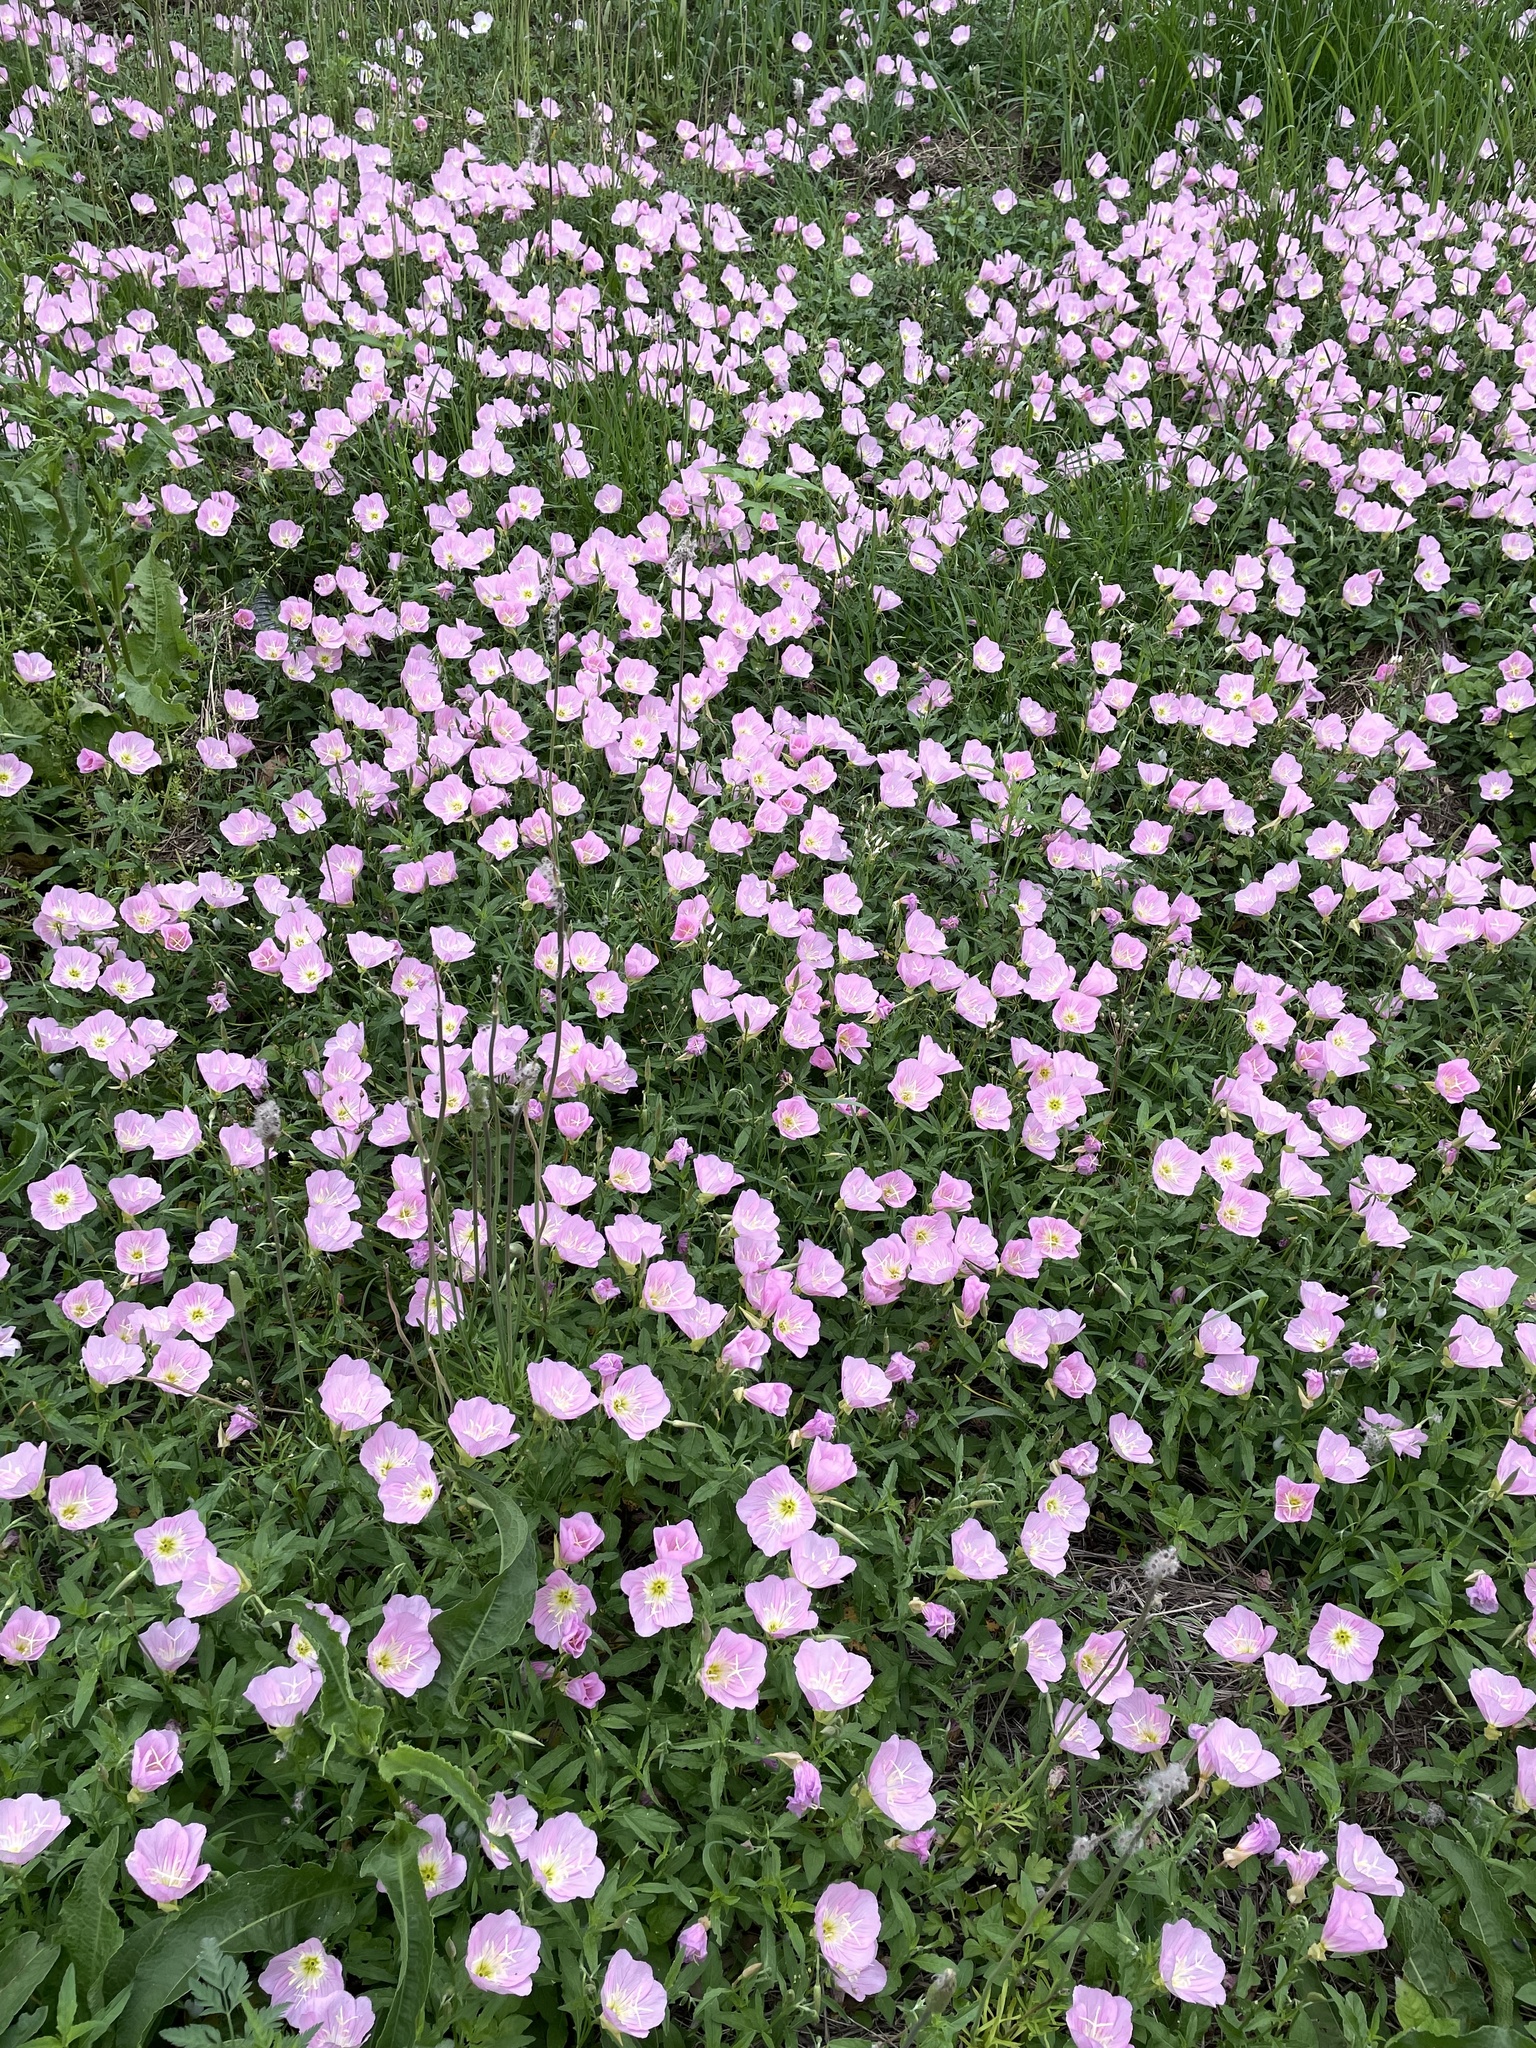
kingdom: Plantae
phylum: Tracheophyta
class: Magnoliopsida
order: Myrtales
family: Onagraceae
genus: Oenothera
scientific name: Oenothera speciosa
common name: White evening-primrose
